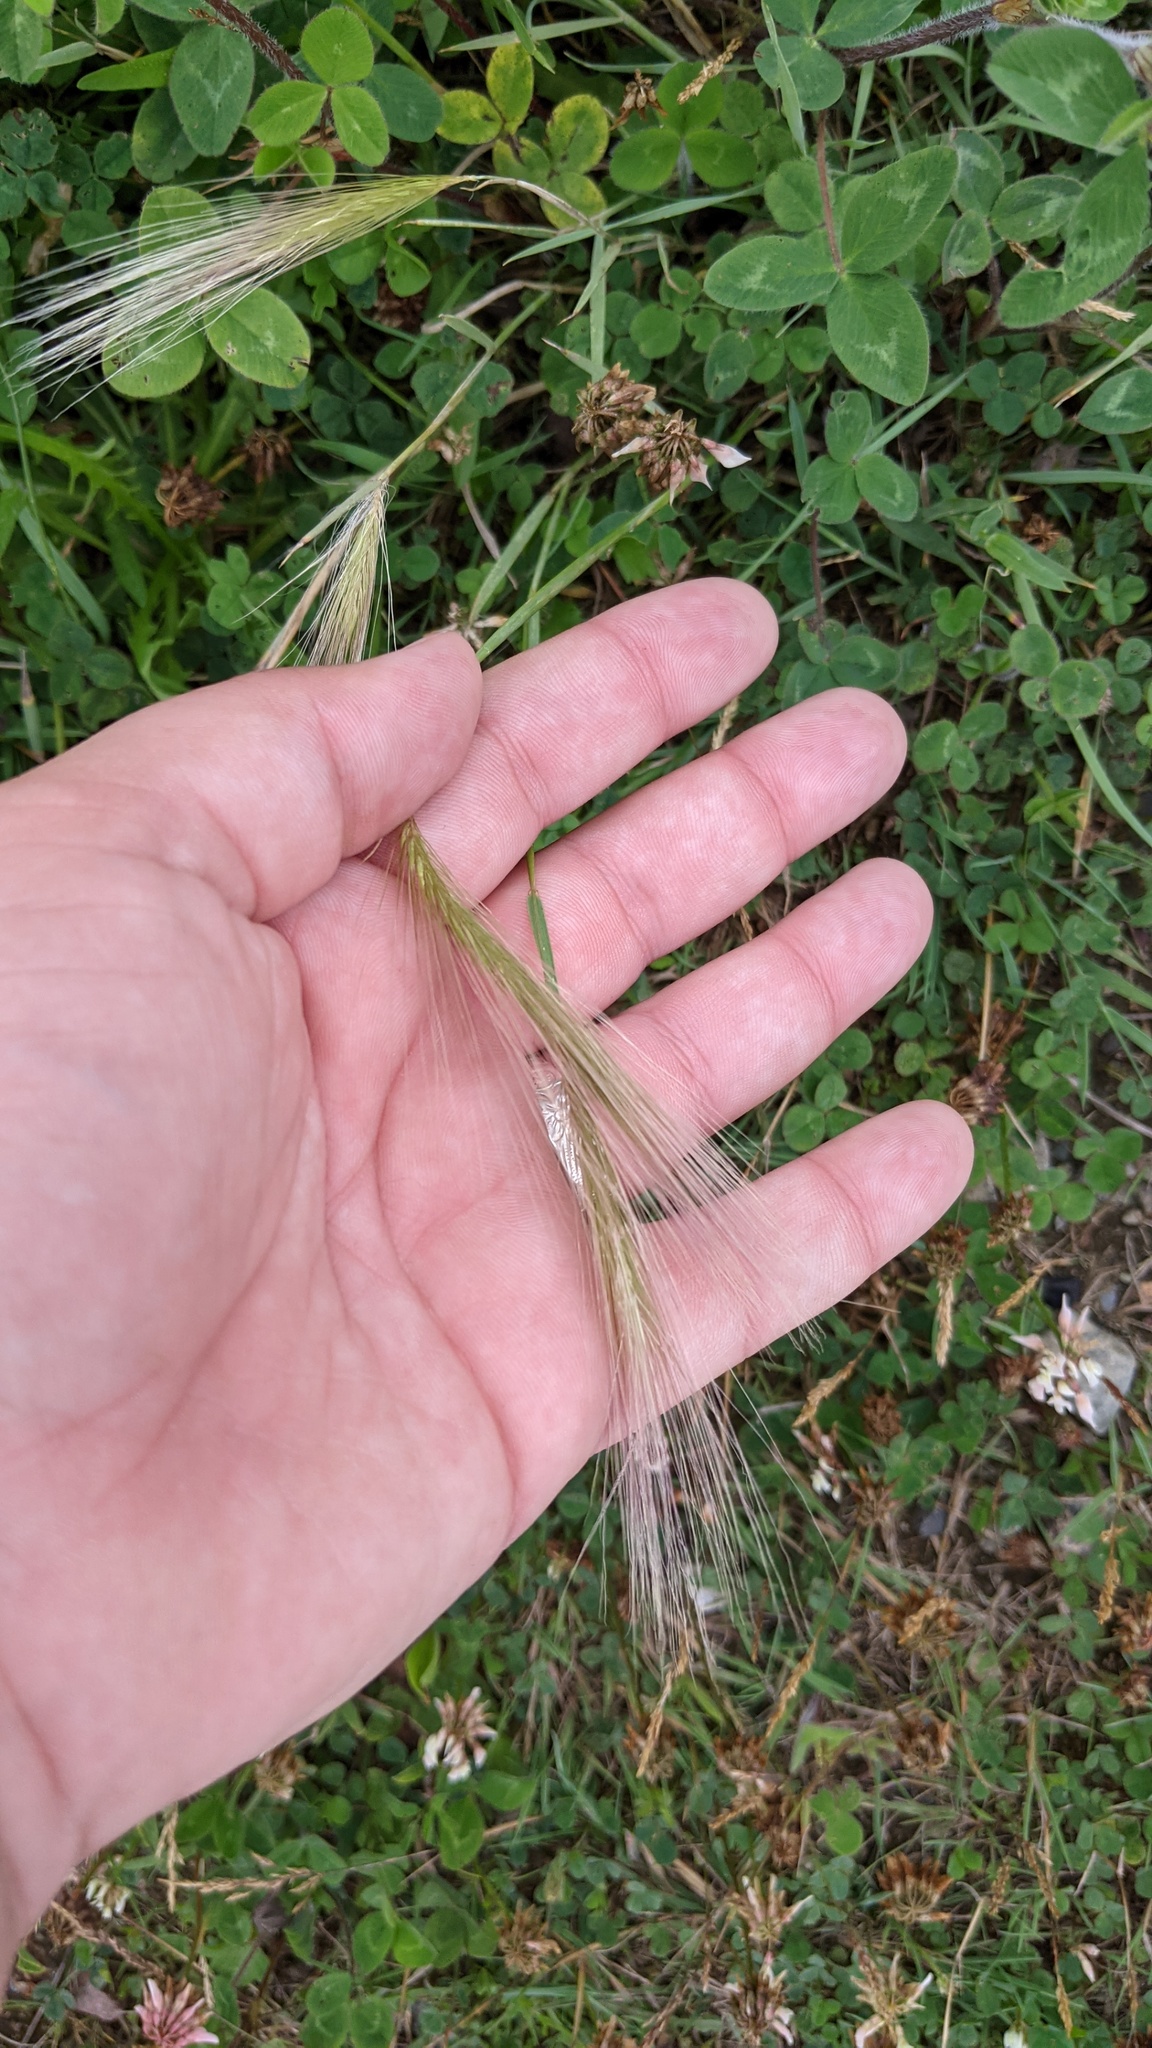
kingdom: Plantae
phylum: Tracheophyta
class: Liliopsida
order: Poales
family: Poaceae
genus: Hordeum
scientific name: Hordeum jubatum
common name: Foxtail barley
